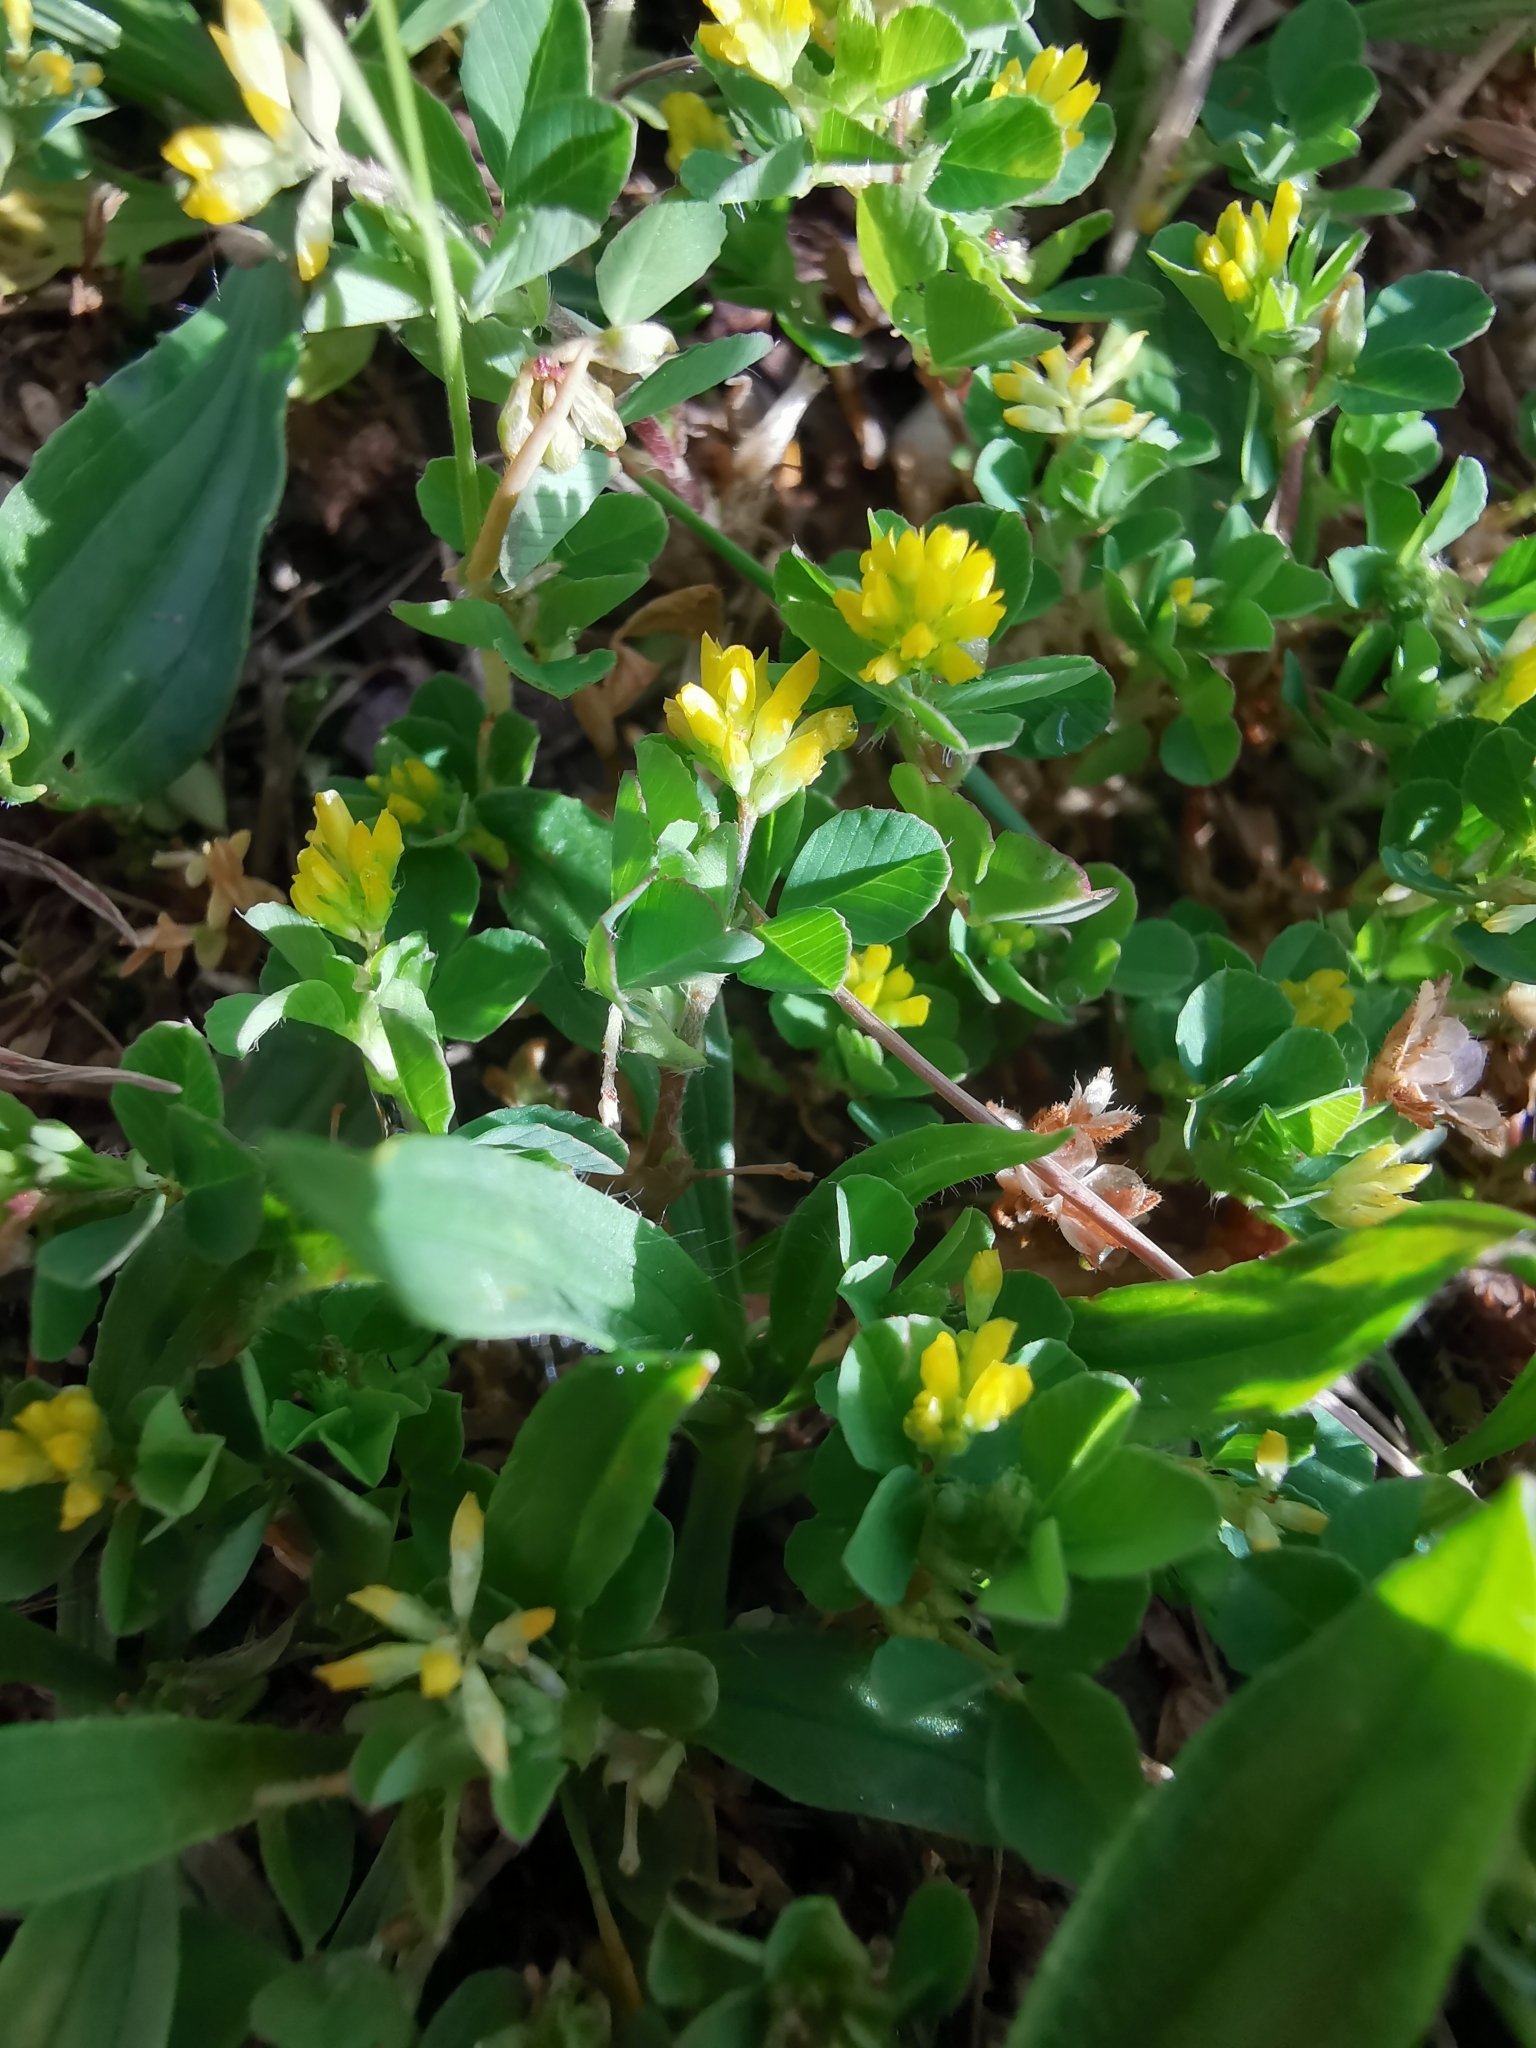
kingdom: Plantae
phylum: Tracheophyta
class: Magnoliopsida
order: Fabales
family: Fabaceae
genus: Trifolium
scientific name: Trifolium dubium
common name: Suckling clover
